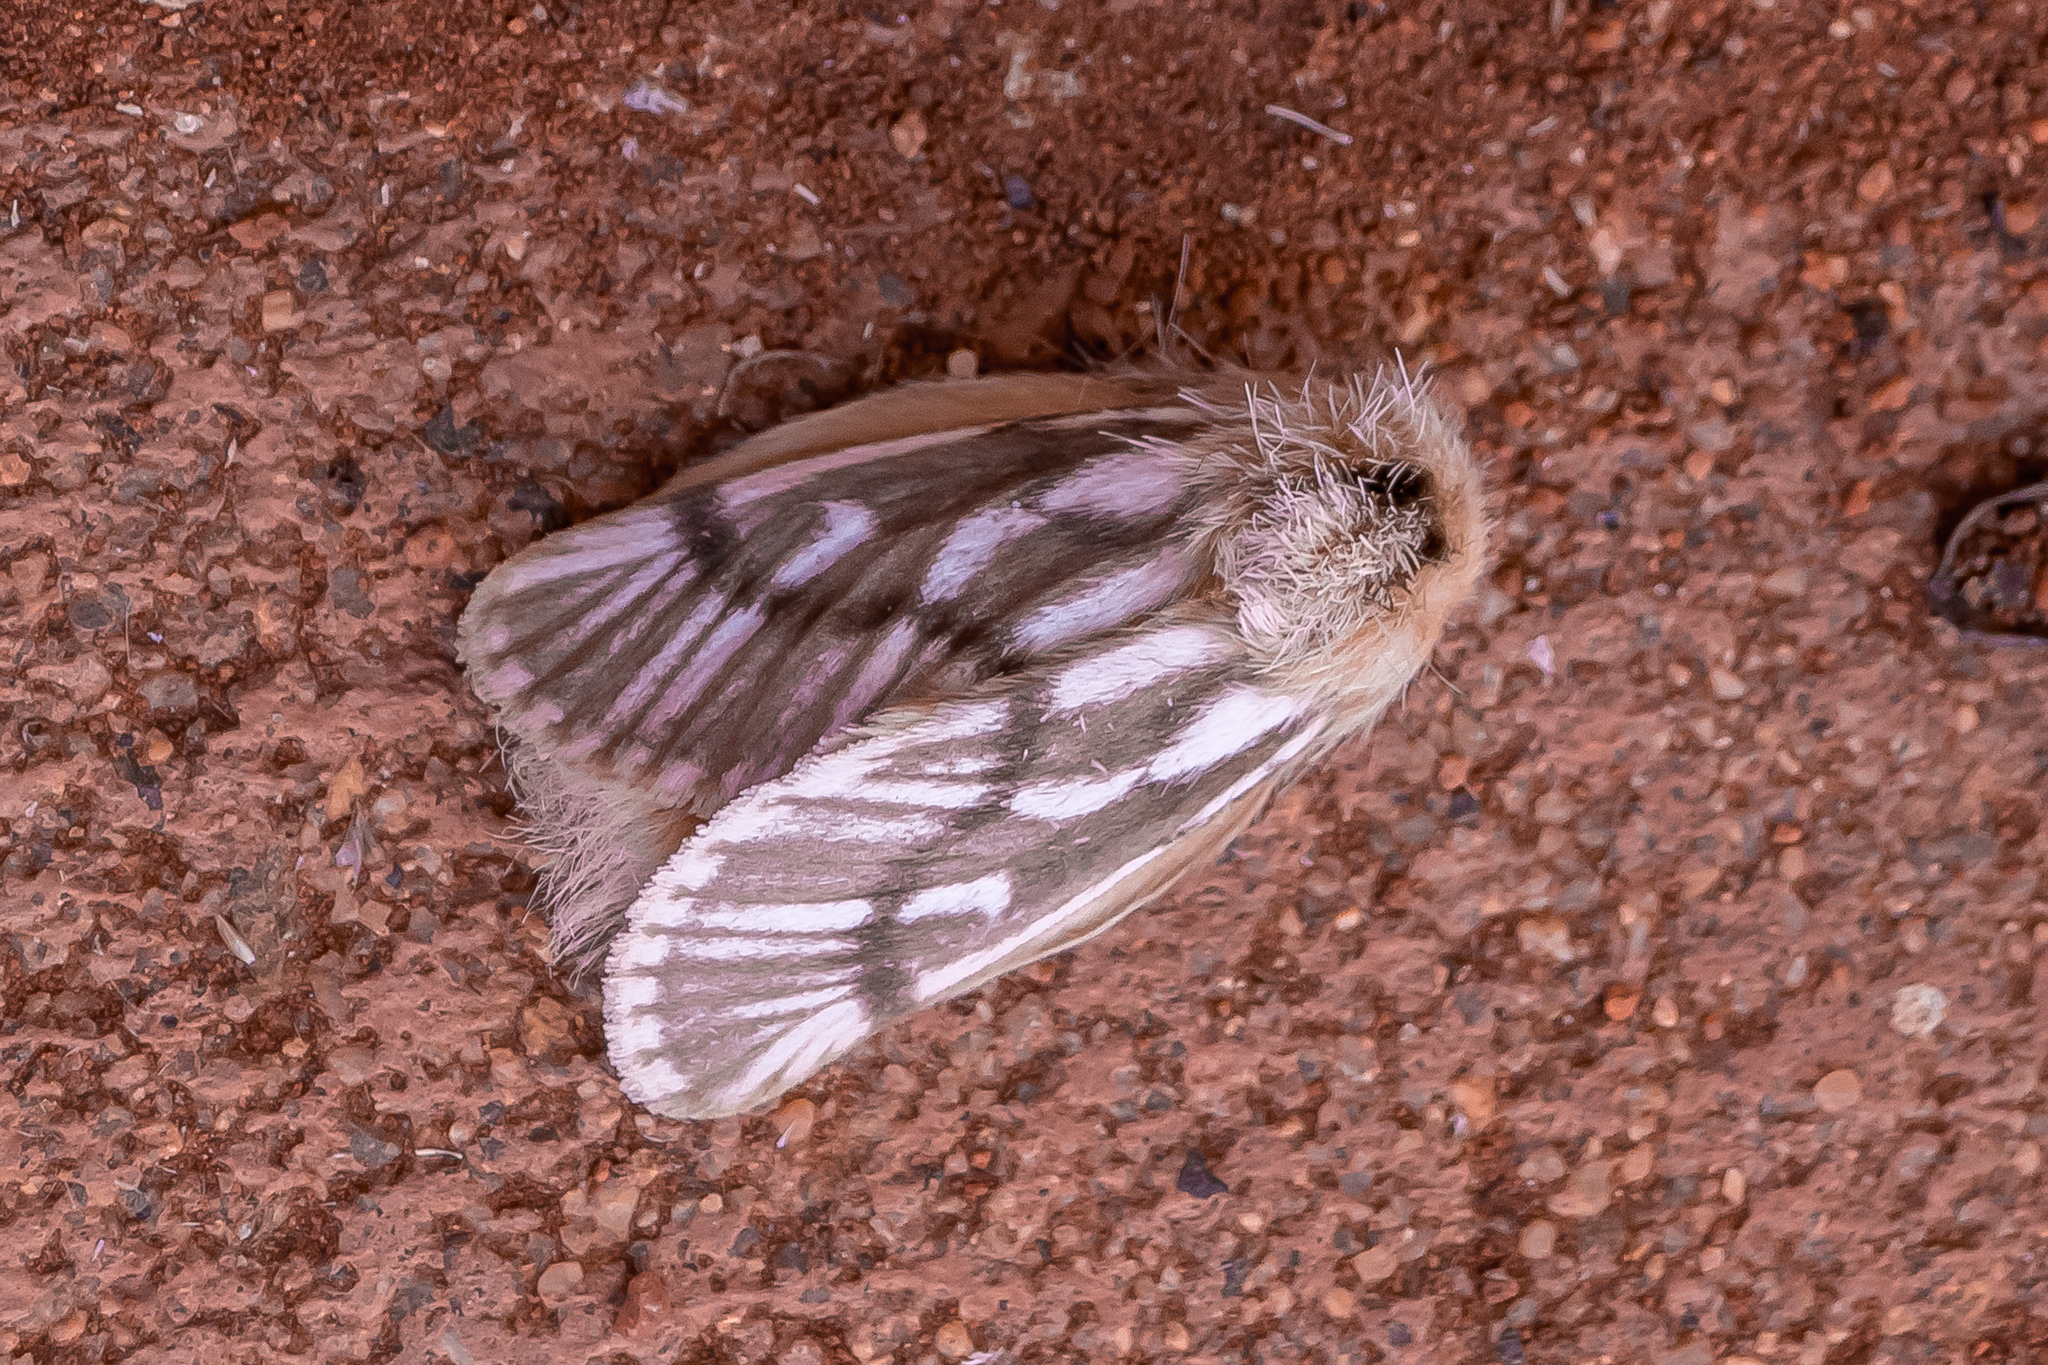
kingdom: Animalia
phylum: Arthropoda
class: Insecta
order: Lepidoptera
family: Notodontidae
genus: Ochrogaster
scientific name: Ochrogaster lunifer
